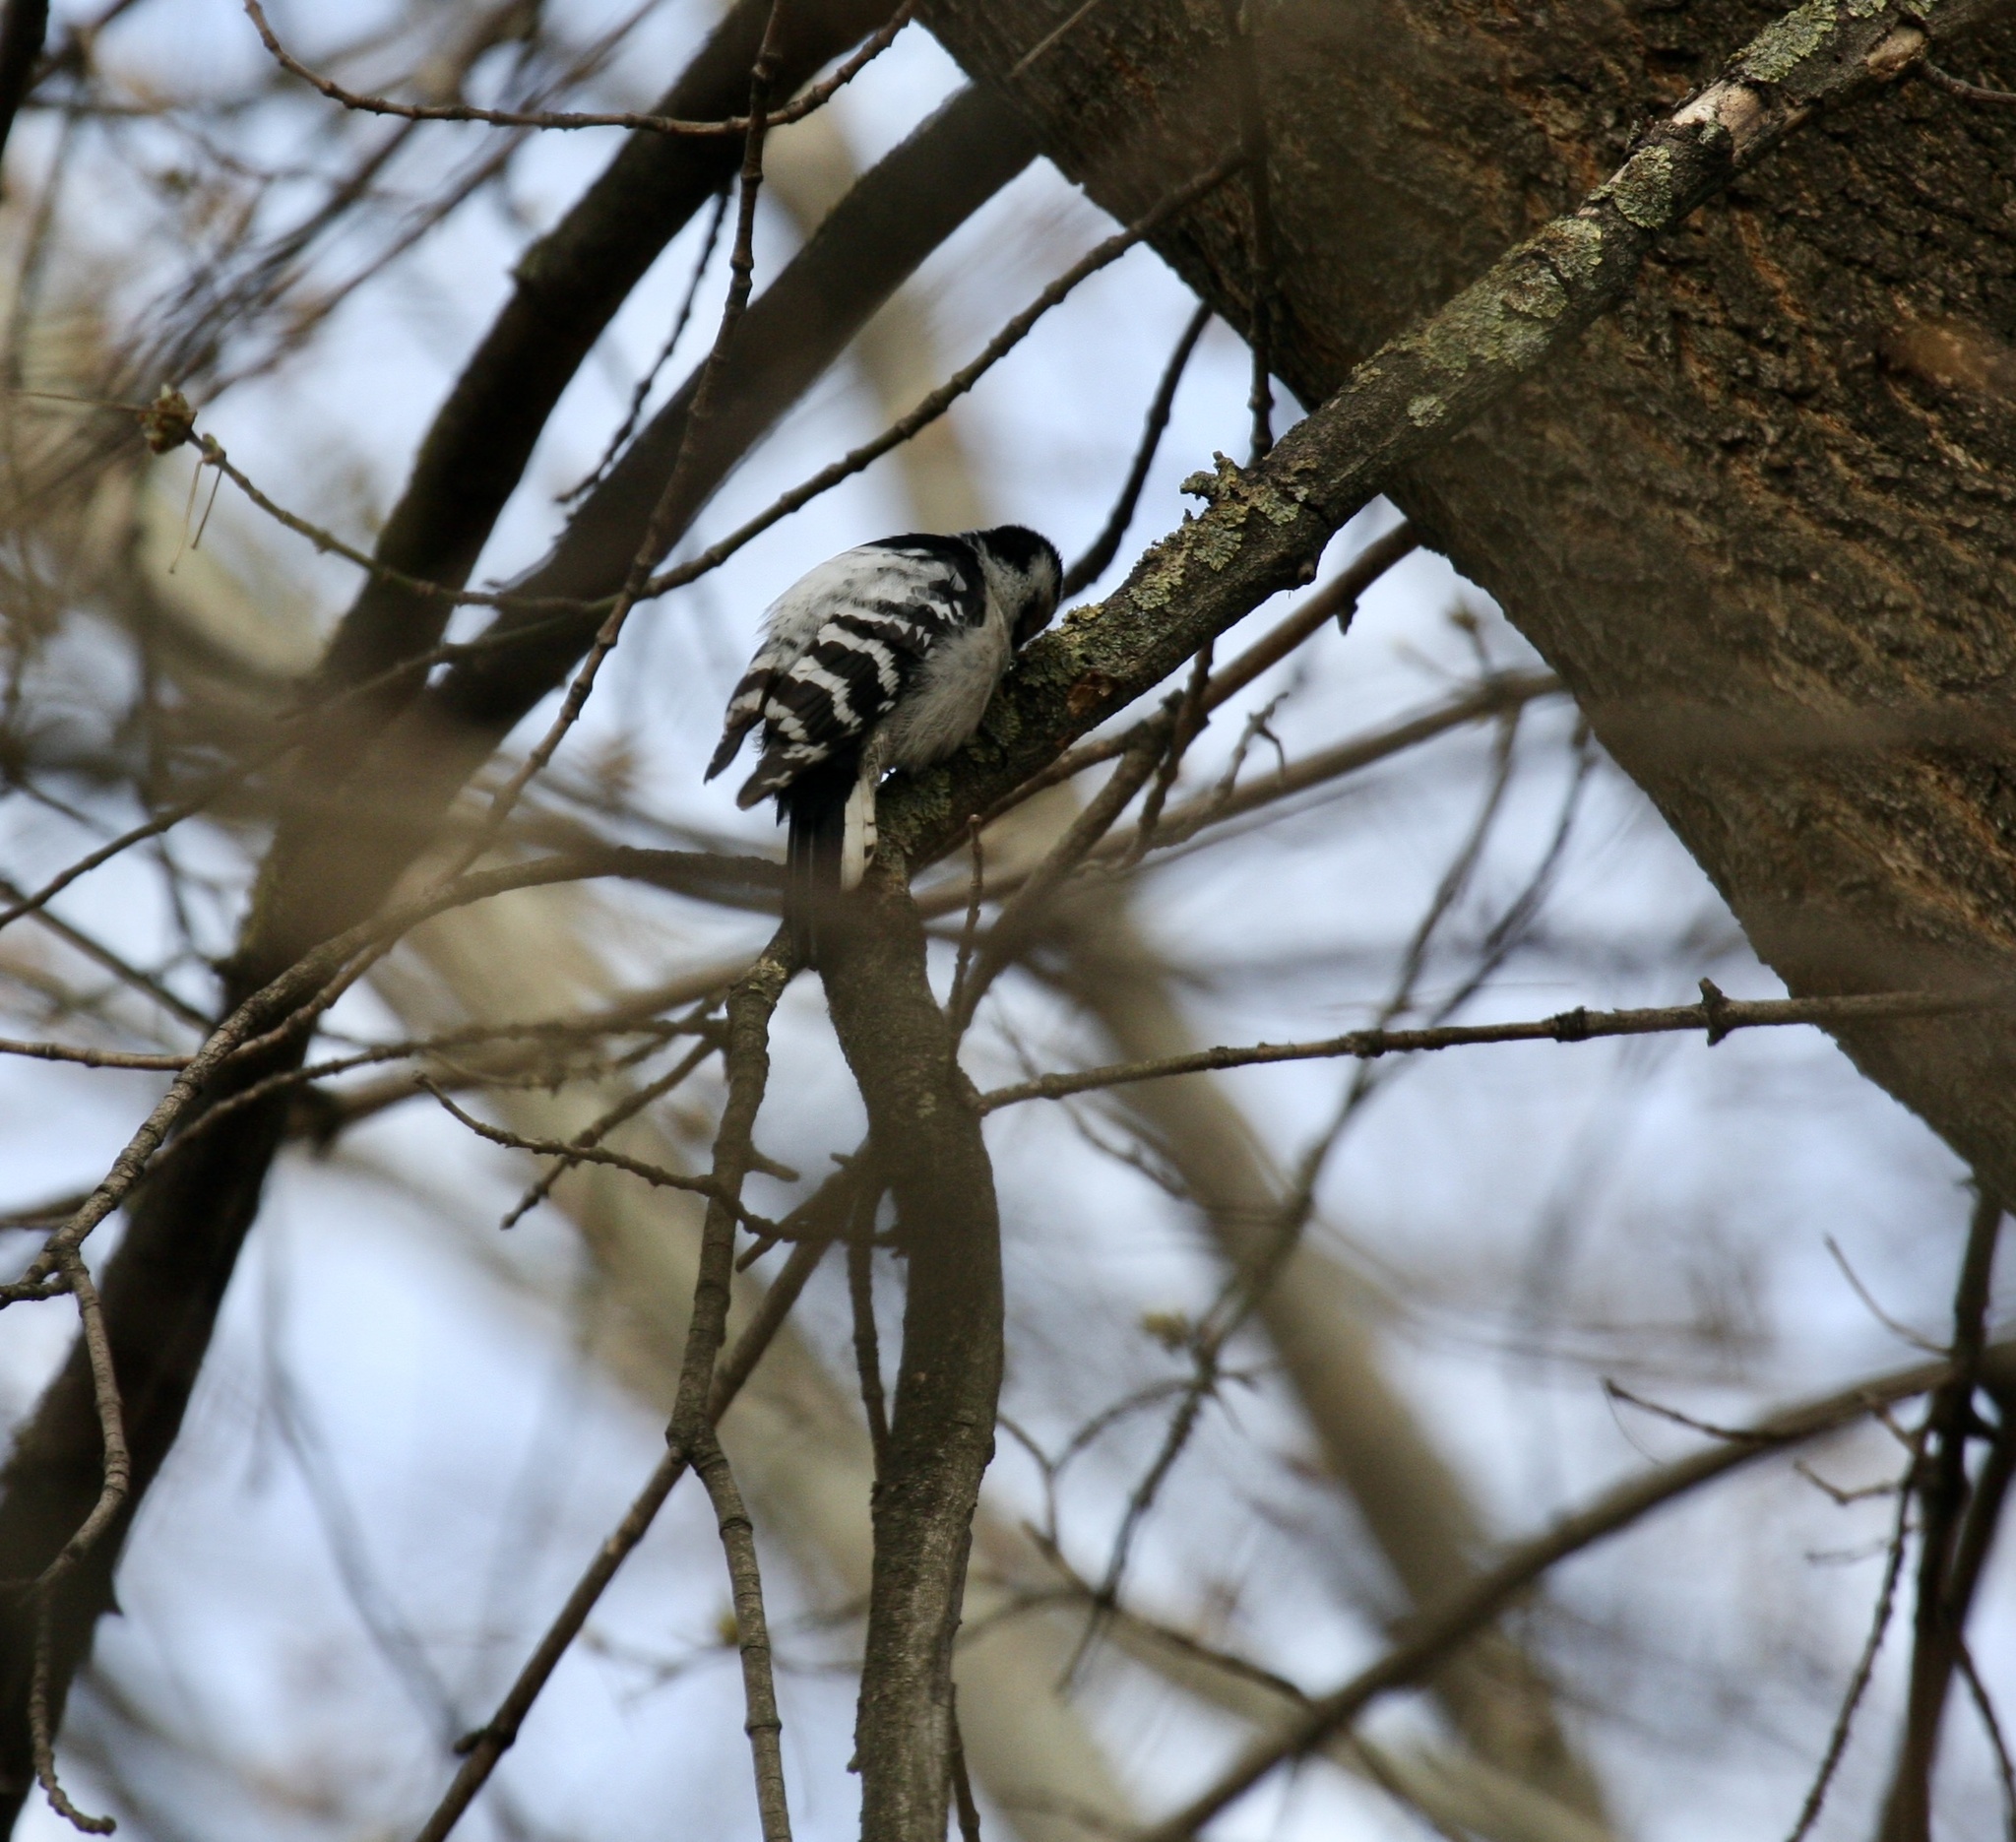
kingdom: Animalia
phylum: Chordata
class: Aves
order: Piciformes
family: Picidae
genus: Dryobates
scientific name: Dryobates minor
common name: Lesser spotted woodpecker
